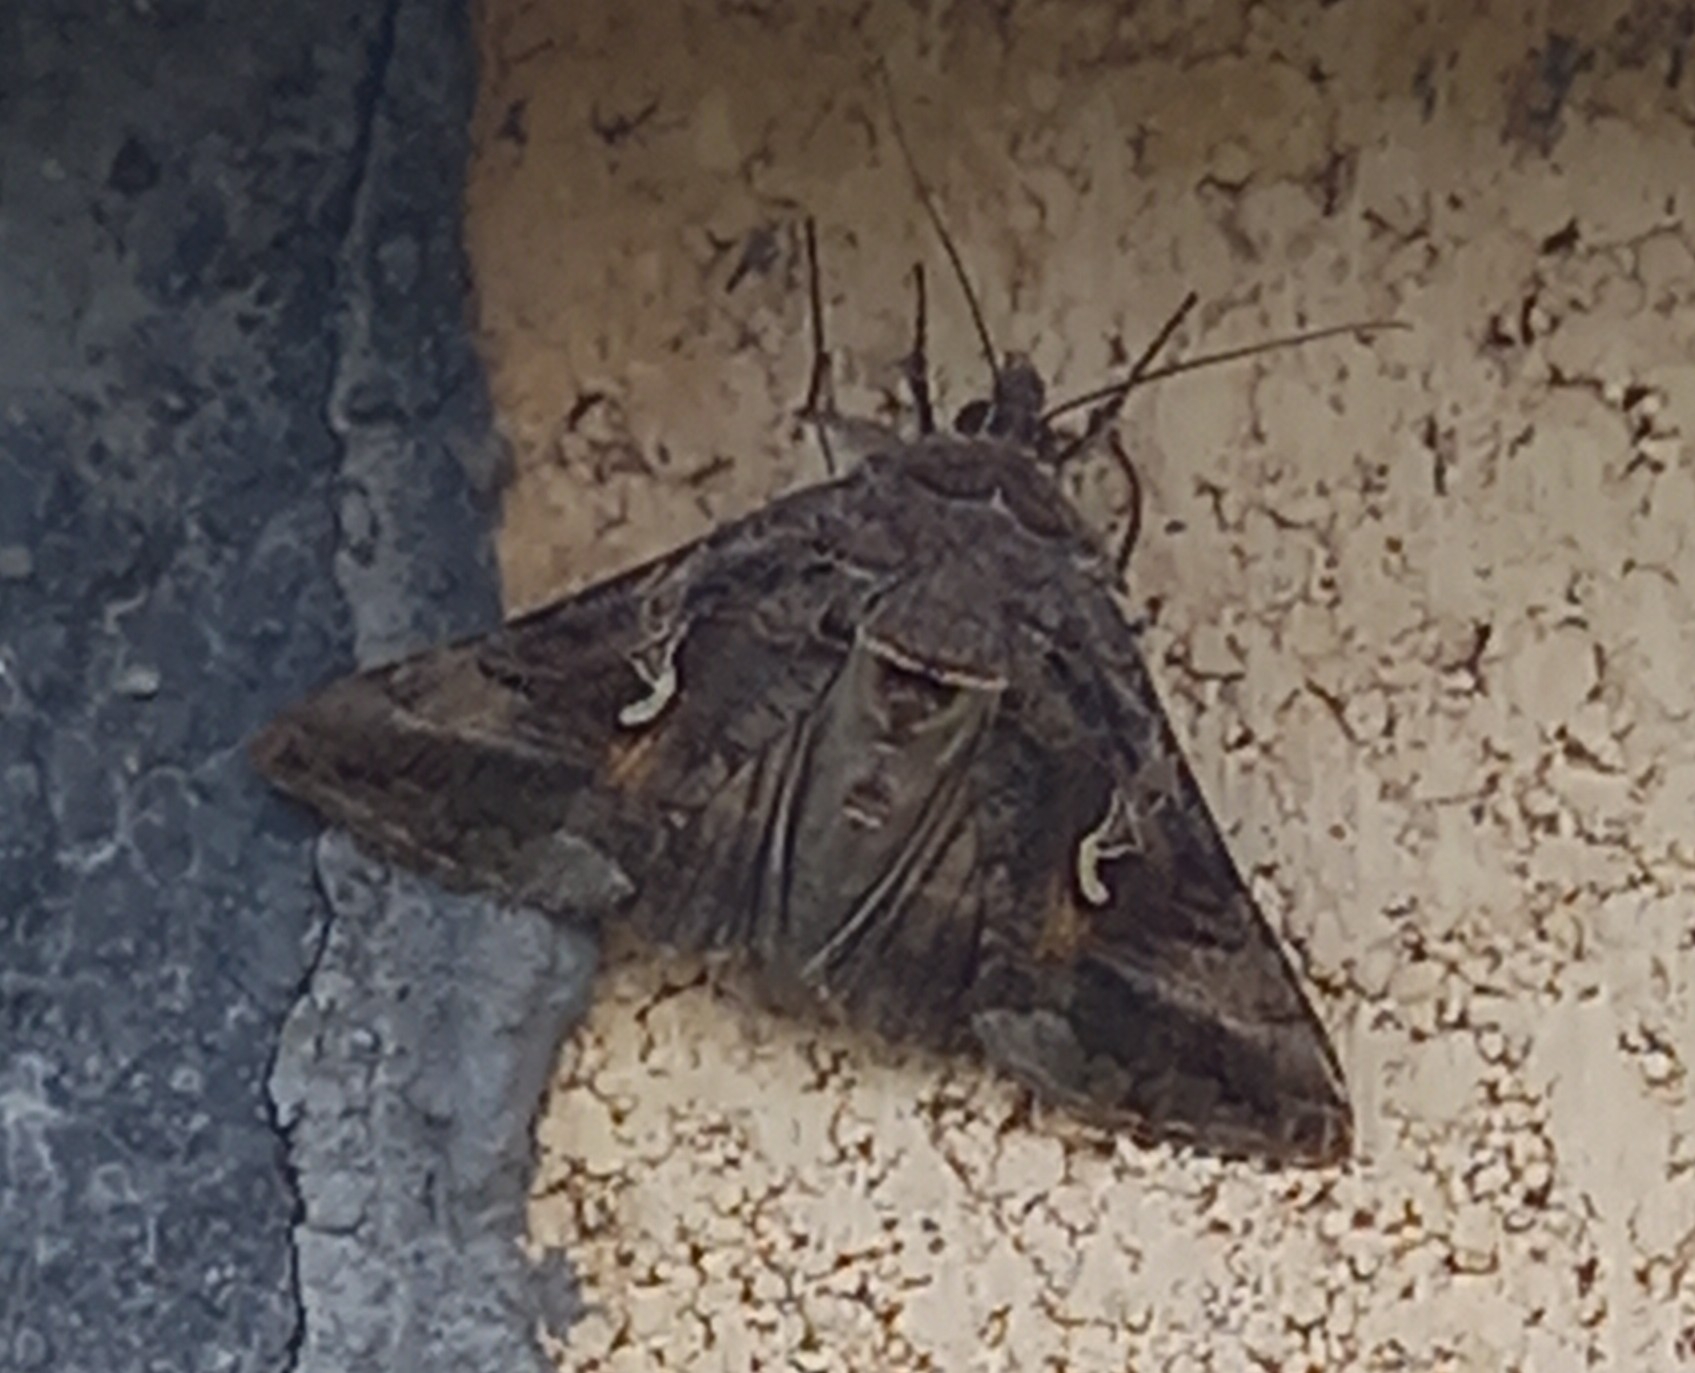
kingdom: Animalia
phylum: Arthropoda
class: Insecta
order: Lepidoptera
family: Noctuidae
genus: Autographa
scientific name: Autographa gamma
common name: Silver y
